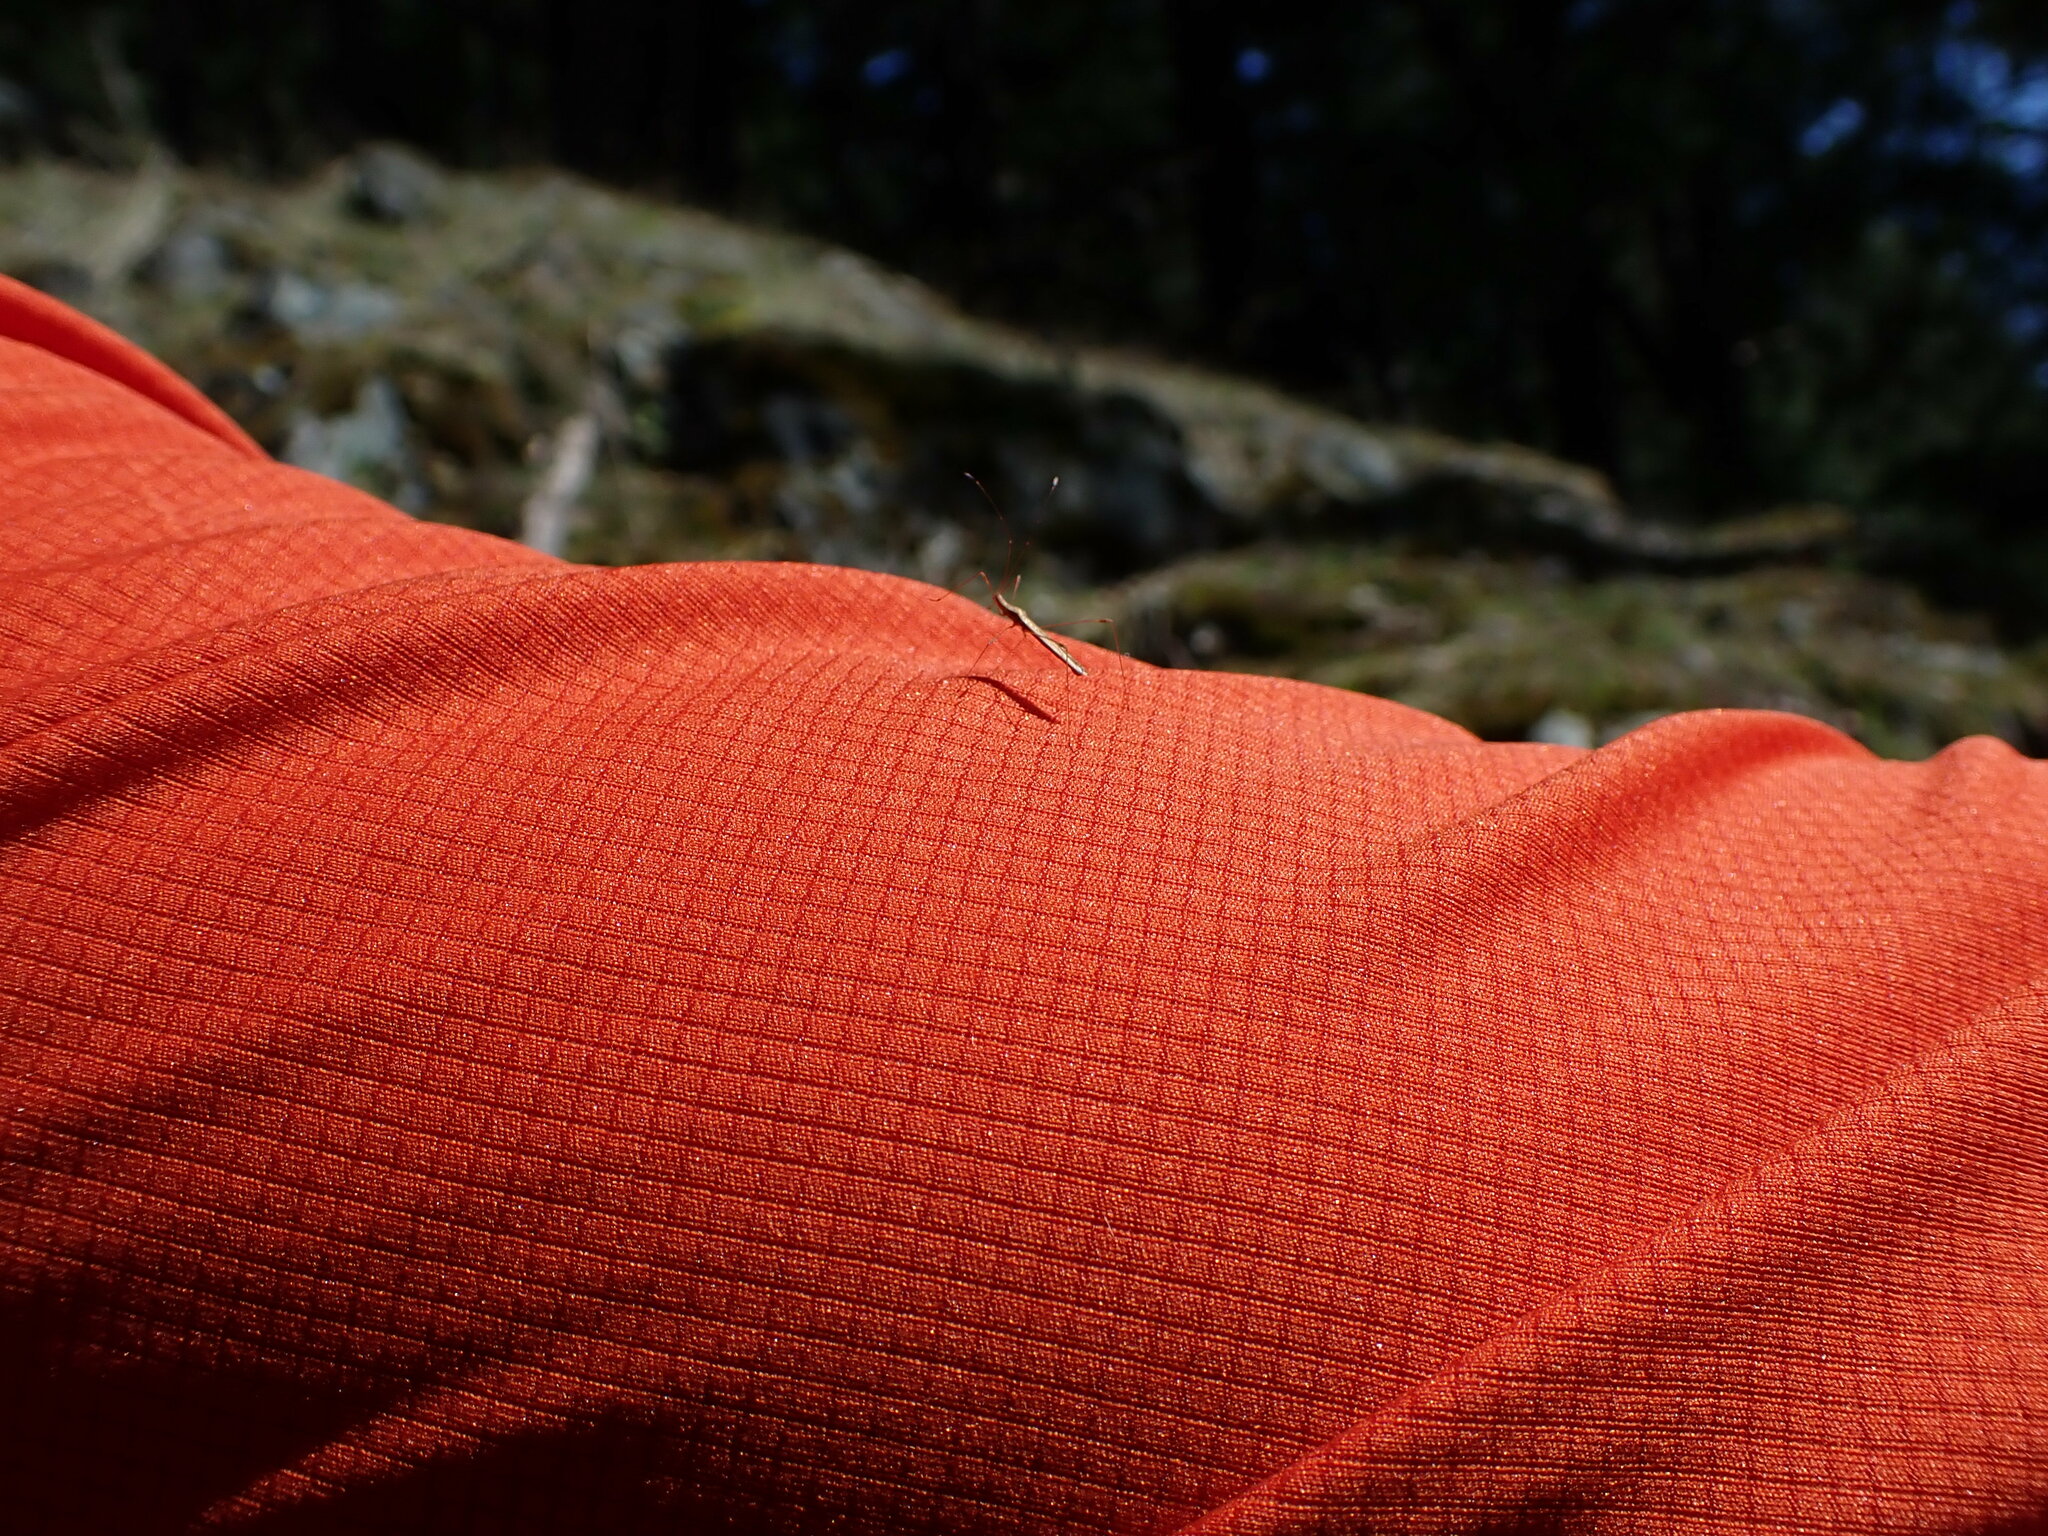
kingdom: Animalia
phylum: Arthropoda
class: Insecta
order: Hemiptera
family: Berytidae
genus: Neoneides
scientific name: Neoneides muticus
